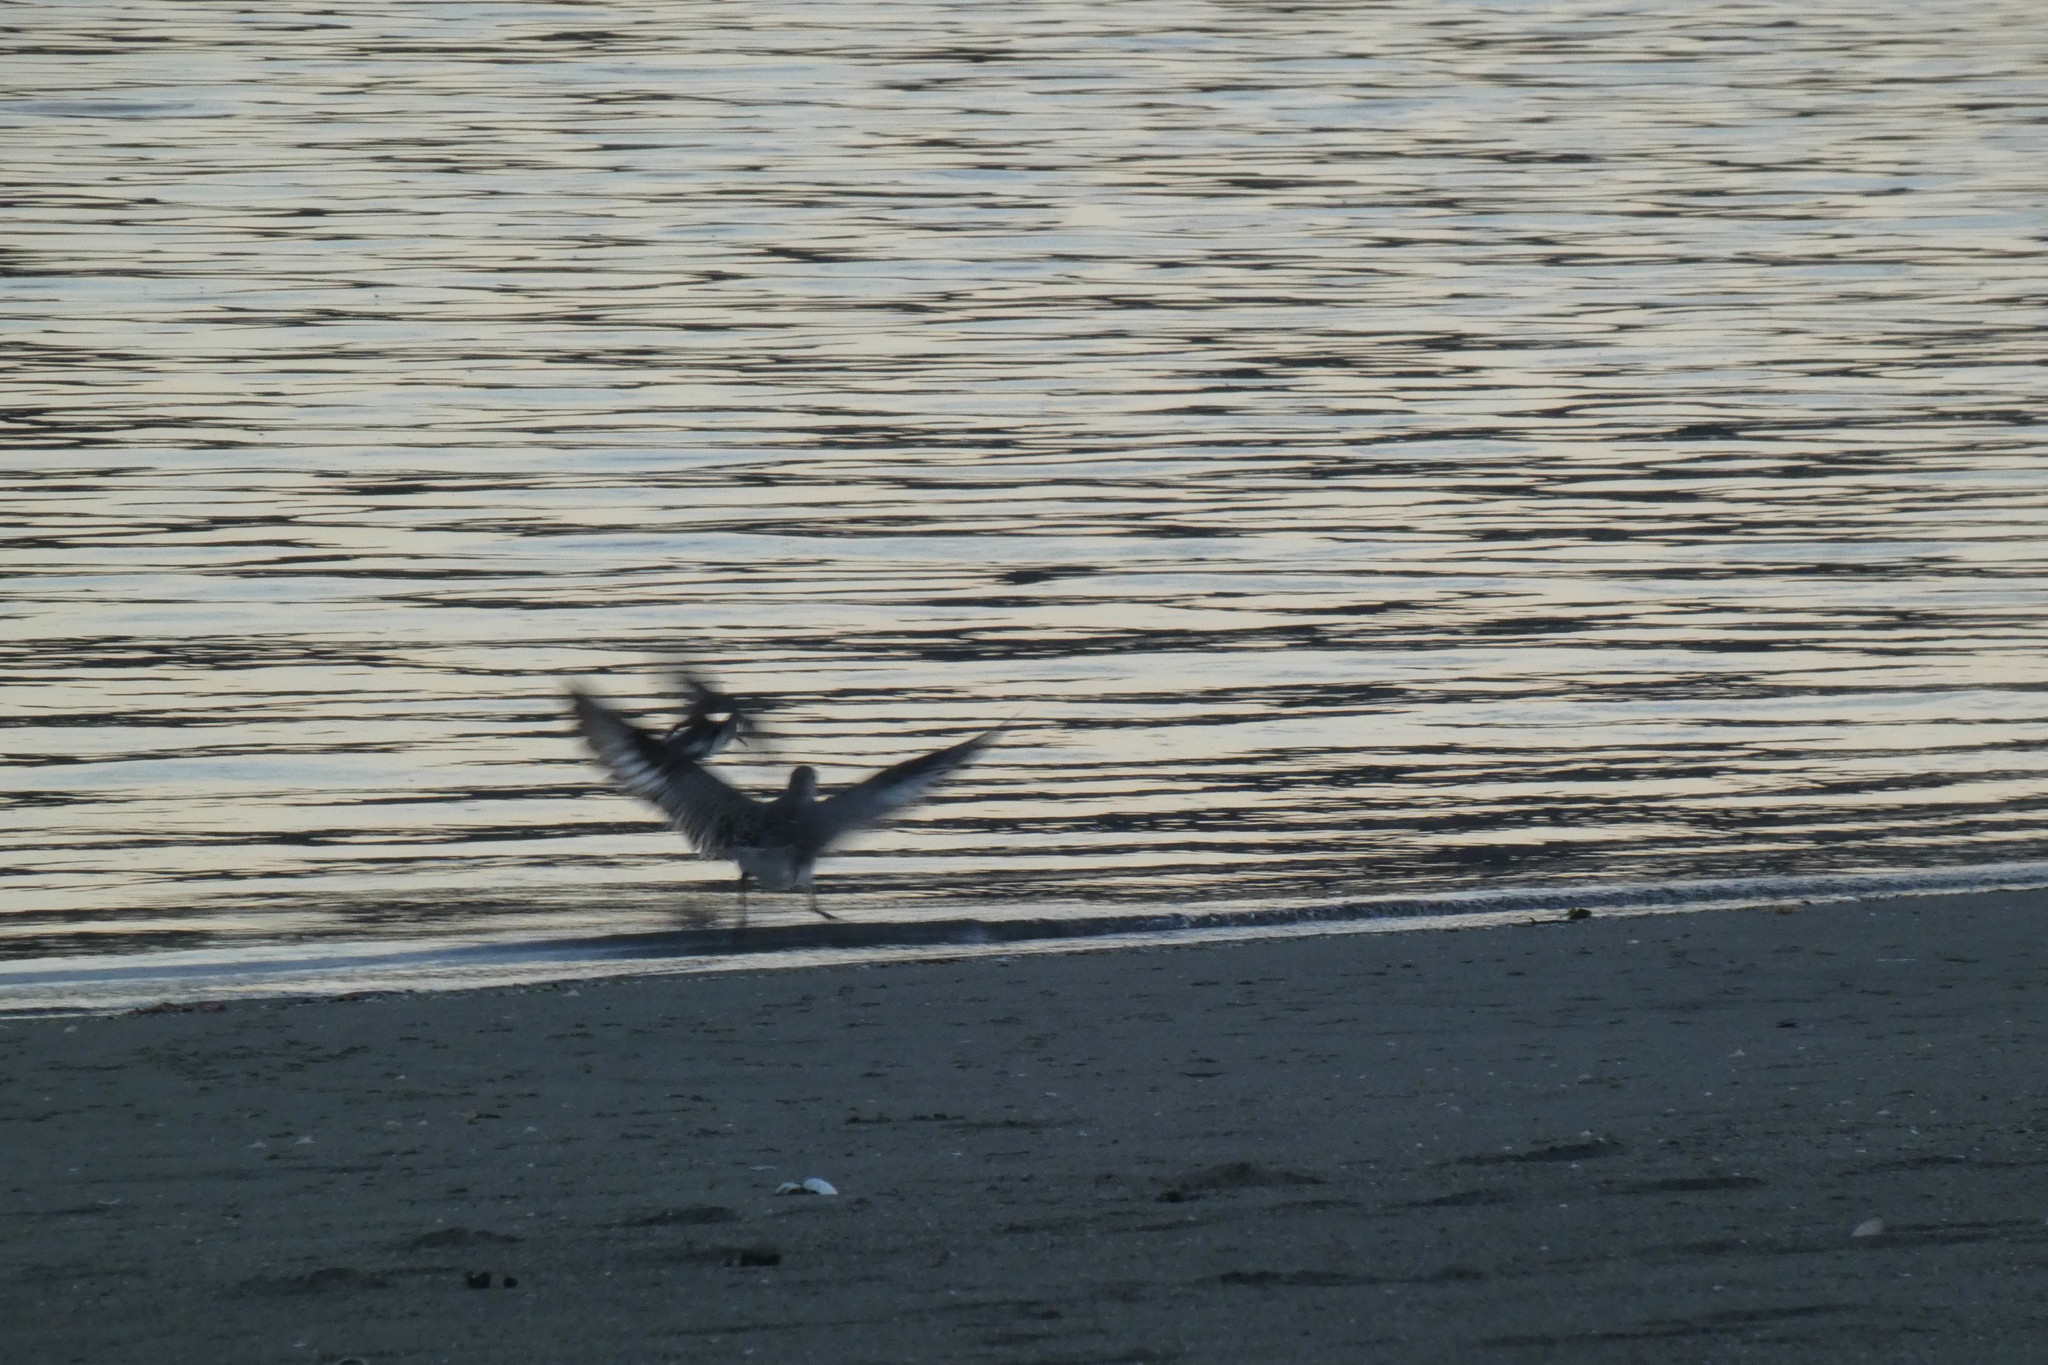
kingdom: Animalia
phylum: Chordata
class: Aves
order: Charadriiformes
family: Charadriidae
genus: Pluvialis
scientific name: Pluvialis squatarola
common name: Grey plover
